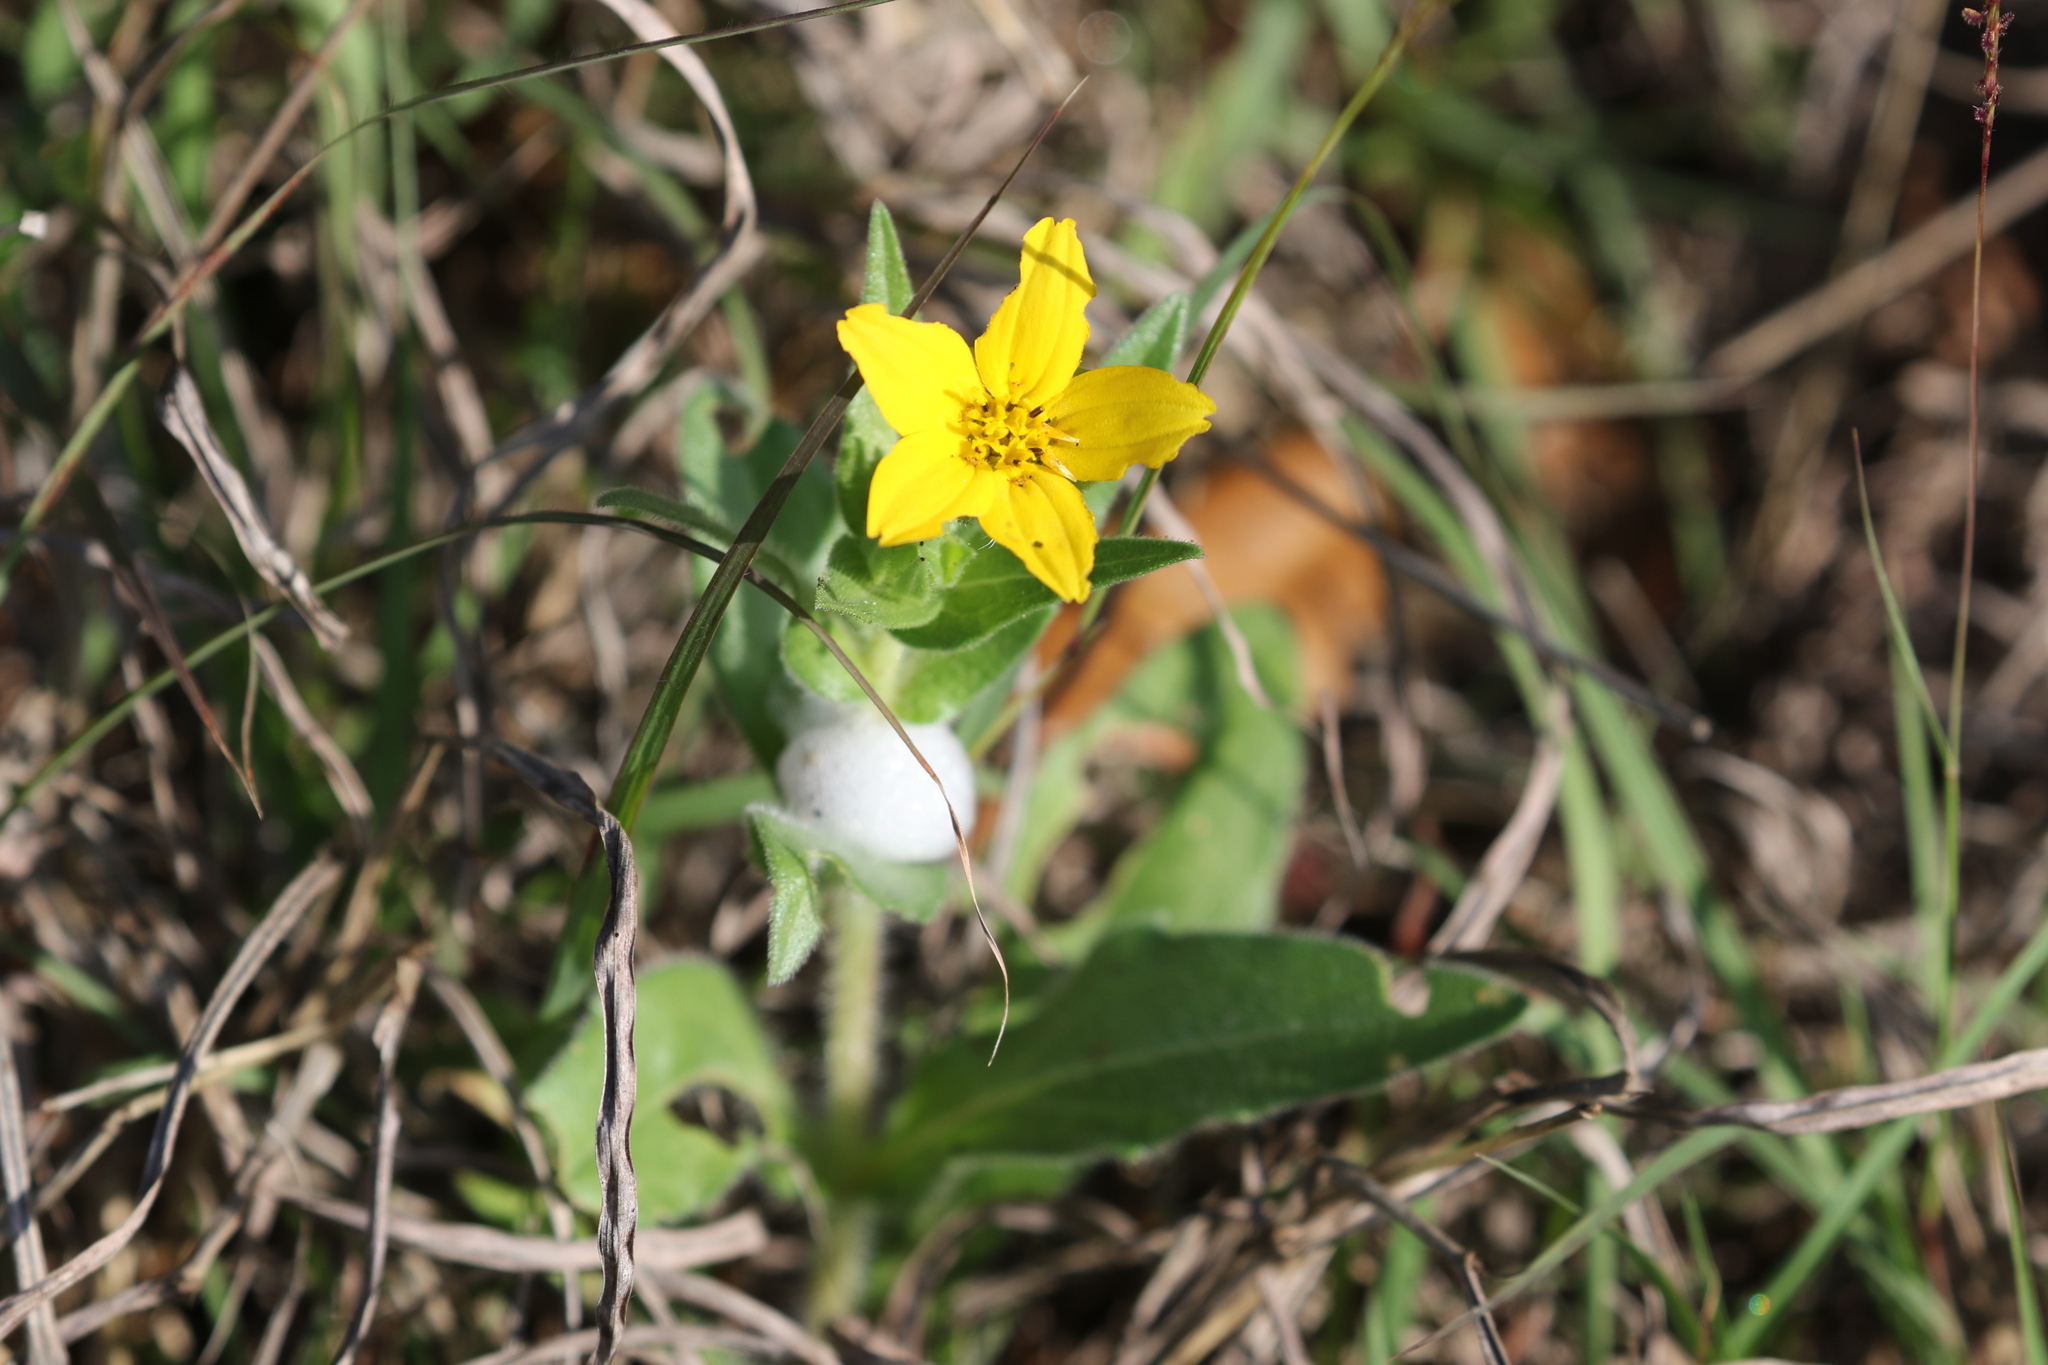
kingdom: Plantae
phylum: Tracheophyta
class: Magnoliopsida
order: Asterales
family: Asteraceae
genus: Lindheimera
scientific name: Lindheimera texana
